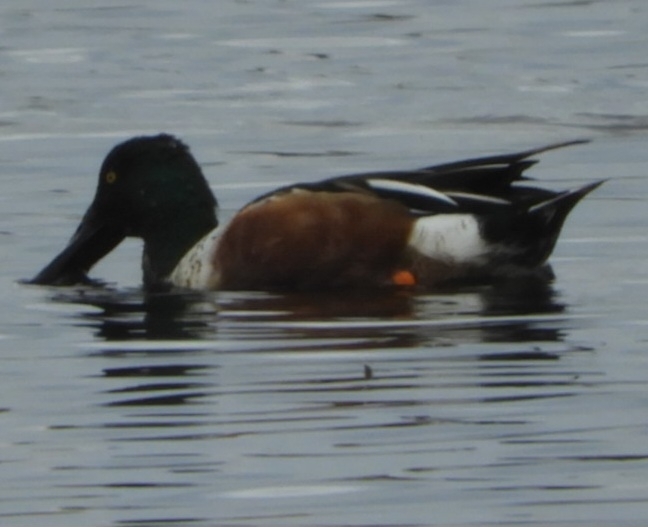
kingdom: Animalia
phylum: Chordata
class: Aves
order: Anseriformes
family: Anatidae
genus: Spatula
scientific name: Spatula clypeata
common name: Northern shoveler
